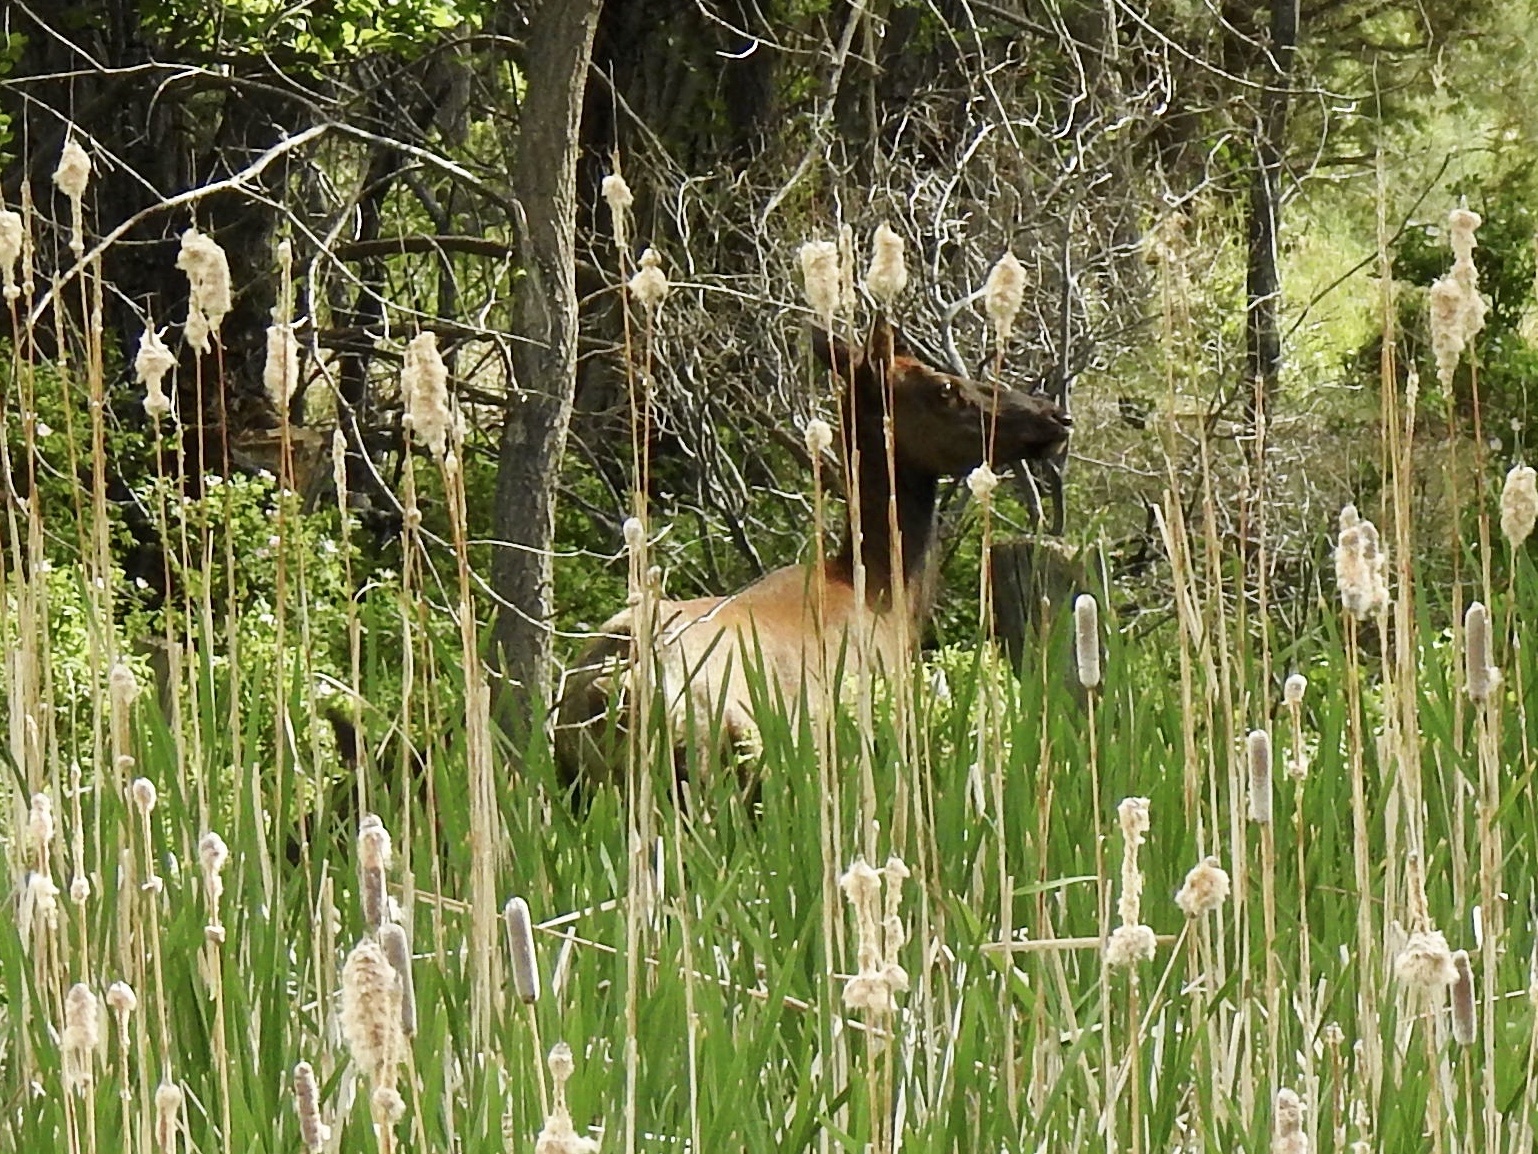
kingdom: Animalia
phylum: Chordata
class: Mammalia
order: Artiodactyla
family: Cervidae
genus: Cervus
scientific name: Cervus elaphus
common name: Red deer
